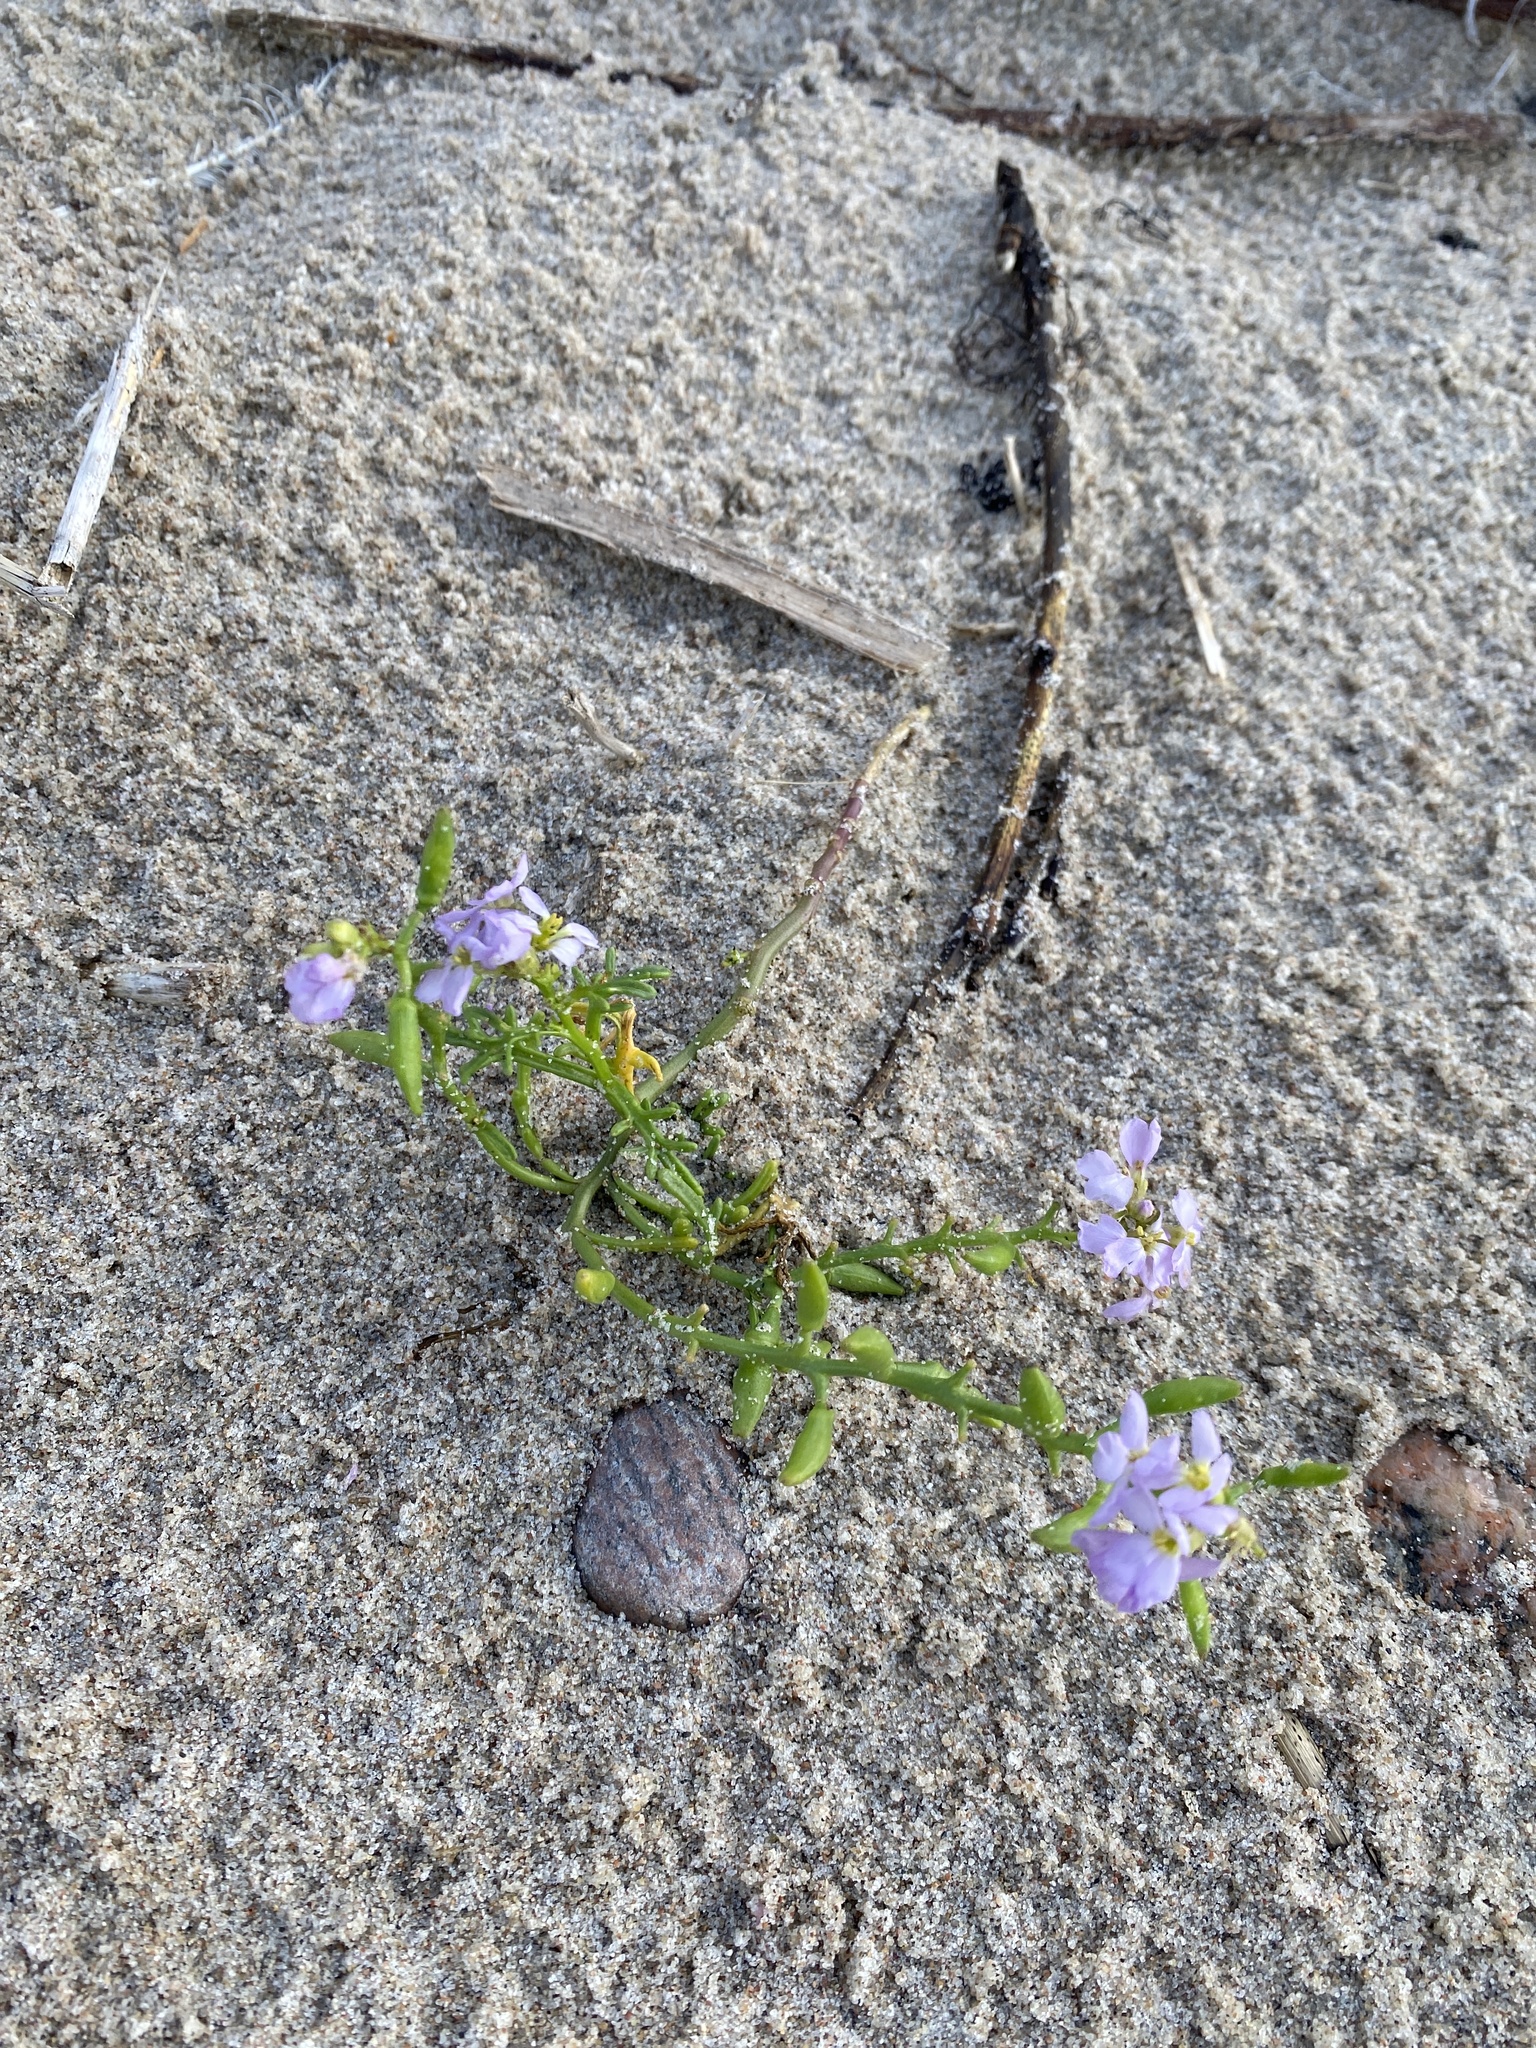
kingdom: Plantae
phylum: Tracheophyta
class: Magnoliopsida
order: Brassicales
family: Brassicaceae
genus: Cakile
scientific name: Cakile maritima
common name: Sea rocket
